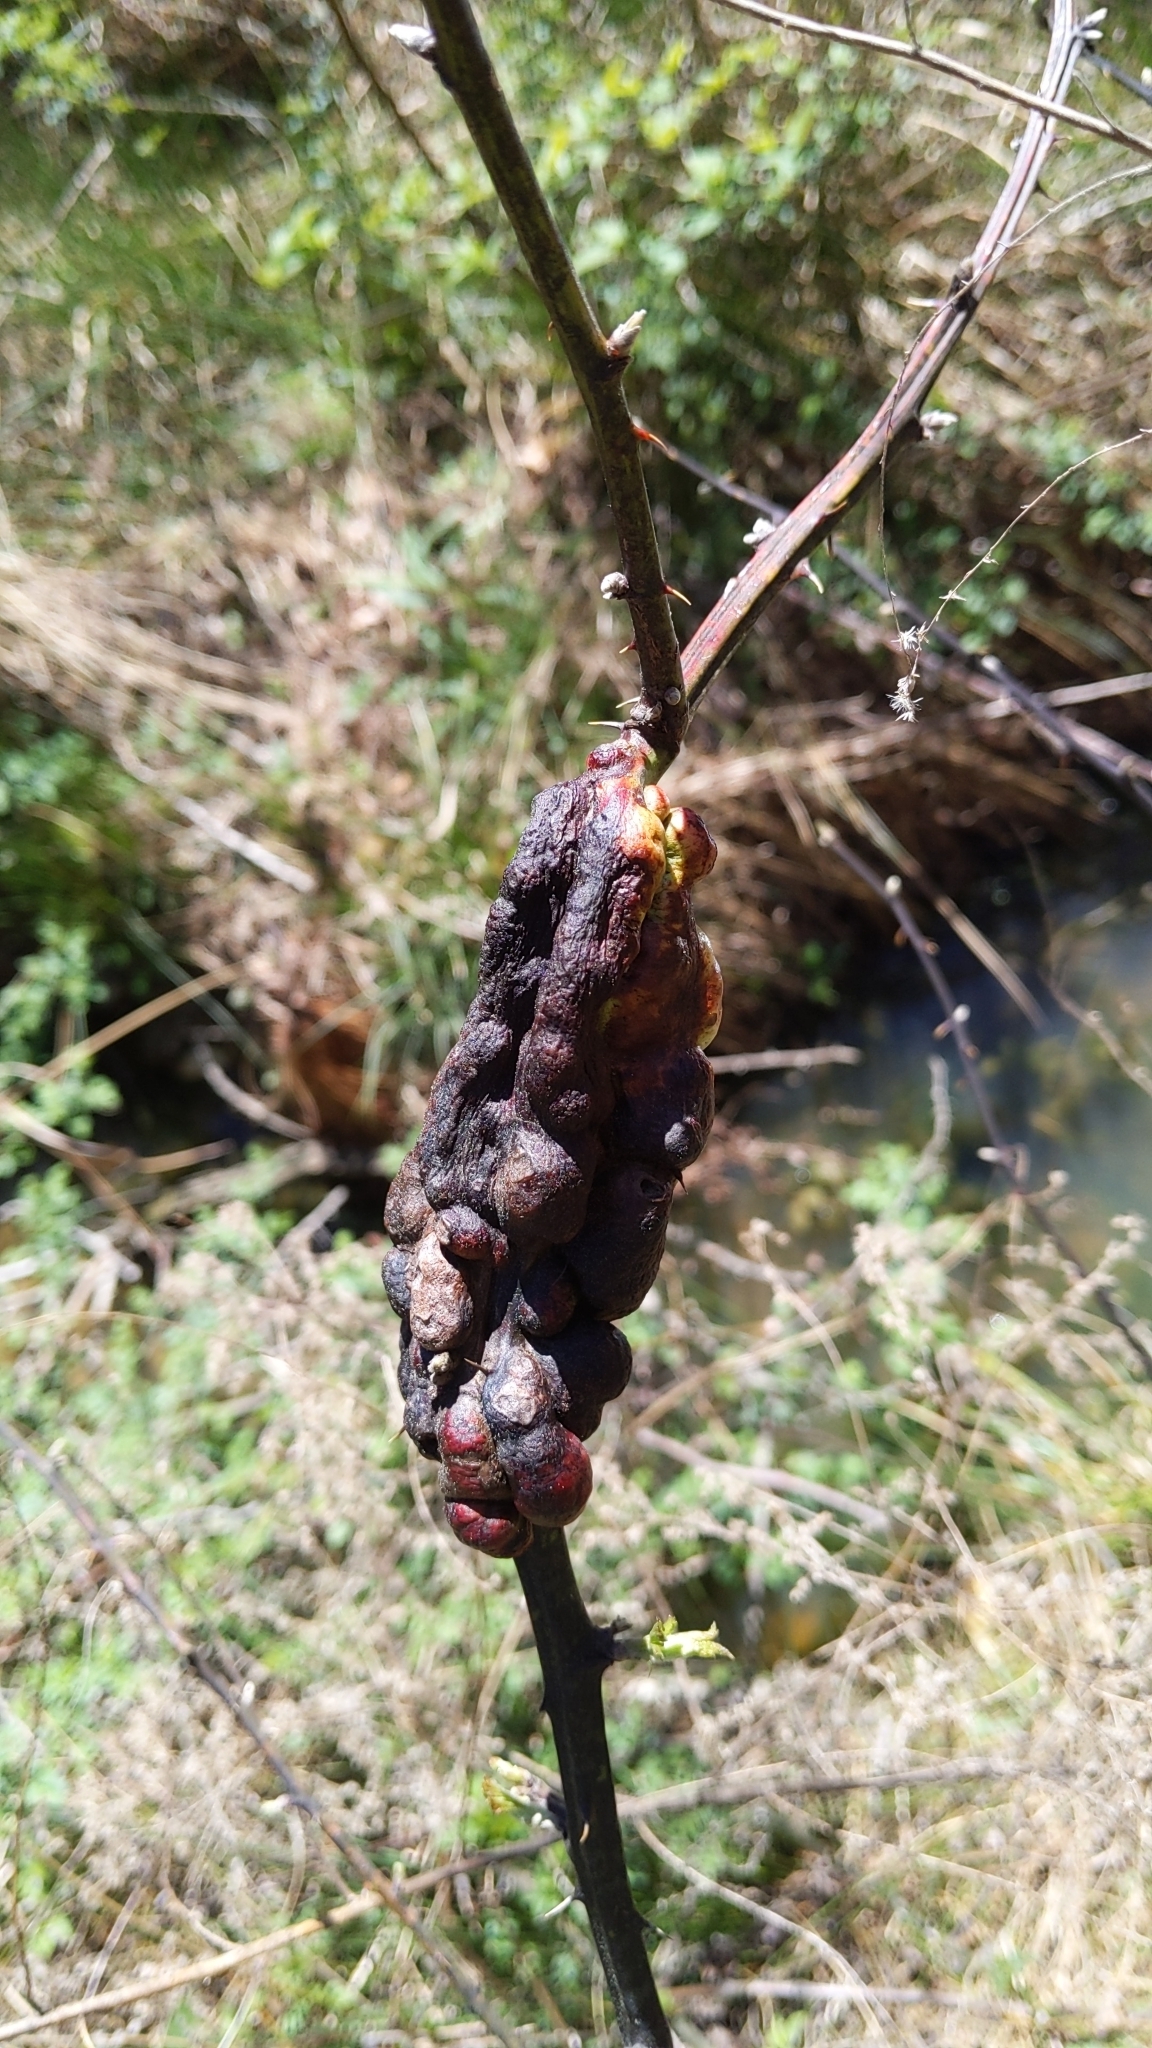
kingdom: Animalia
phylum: Arthropoda
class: Insecta
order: Hymenoptera
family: Cynipidae
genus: Diastrophus
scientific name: Diastrophus
